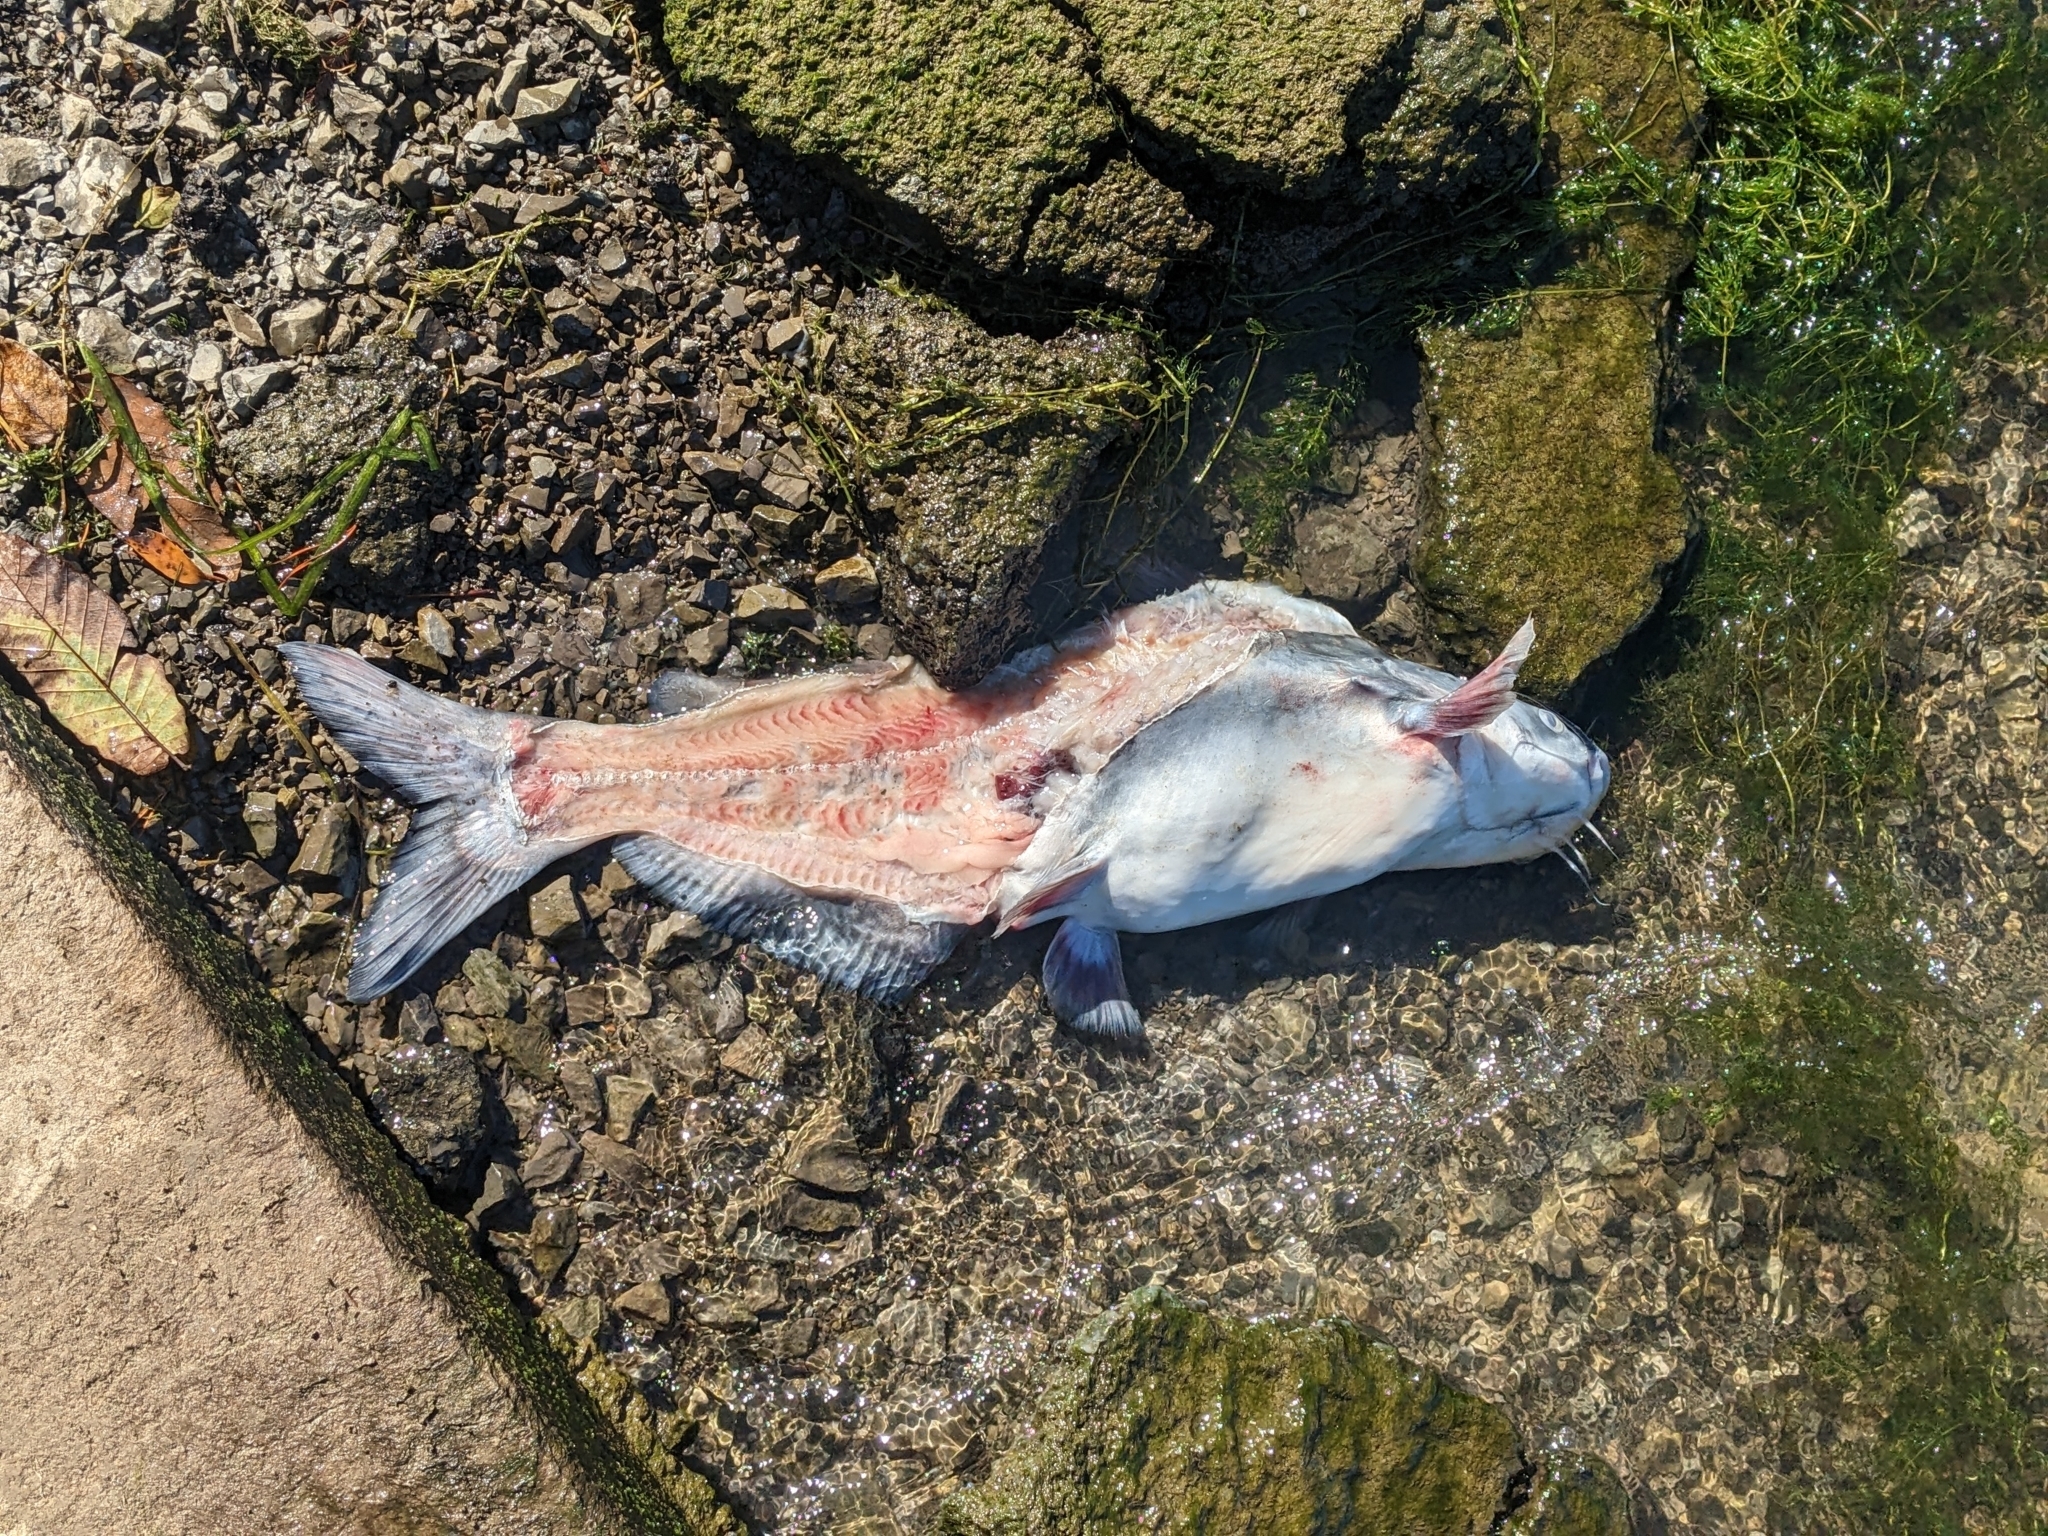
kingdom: Animalia
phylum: Chordata
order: Siluriformes
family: Ictaluridae
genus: Ictalurus
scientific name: Ictalurus furcatus
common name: Blue catfish
